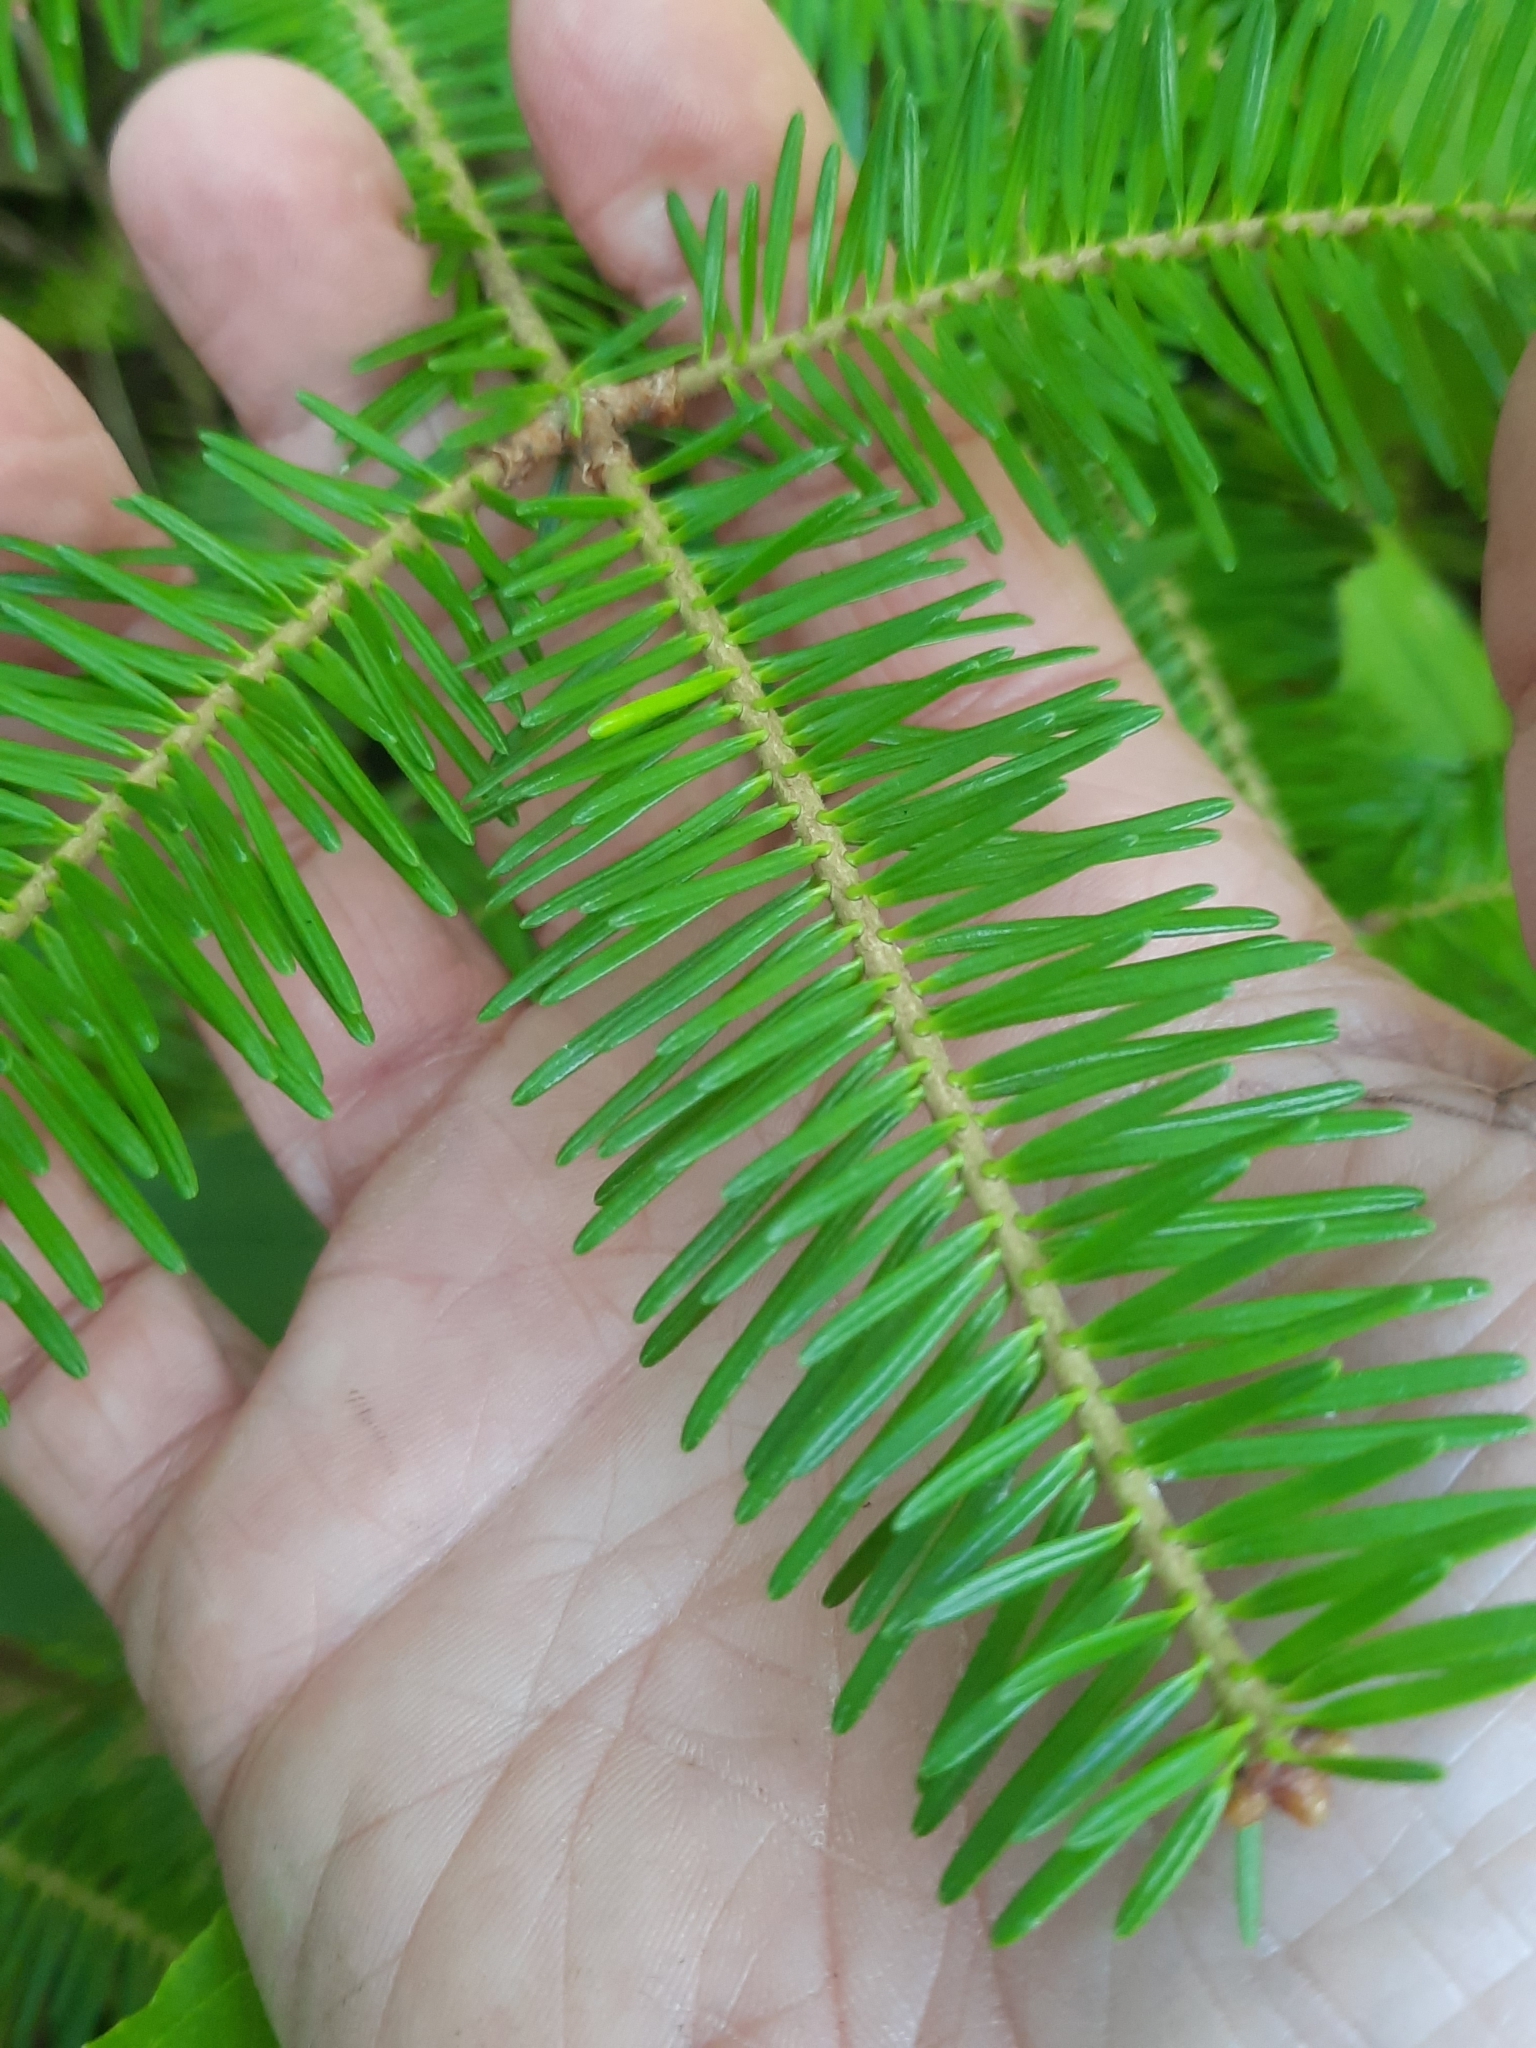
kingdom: Plantae
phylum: Tracheophyta
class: Pinopsida
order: Pinales
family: Pinaceae
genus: Abies
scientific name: Abies balsamea
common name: Balsam fir
